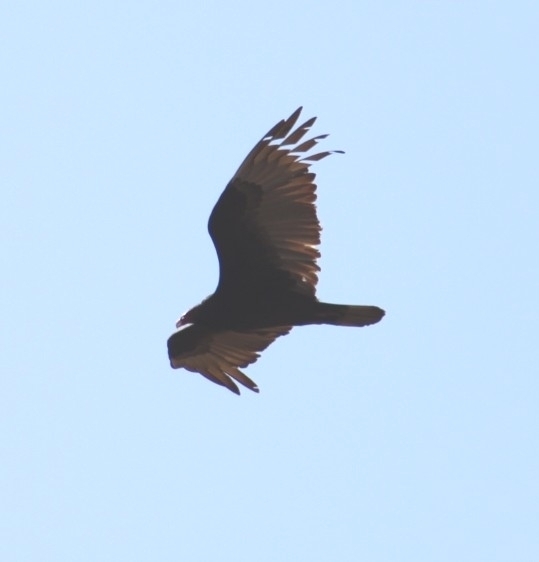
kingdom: Animalia
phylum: Chordata
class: Aves
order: Accipitriformes
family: Cathartidae
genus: Cathartes
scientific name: Cathartes aura
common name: Turkey vulture
